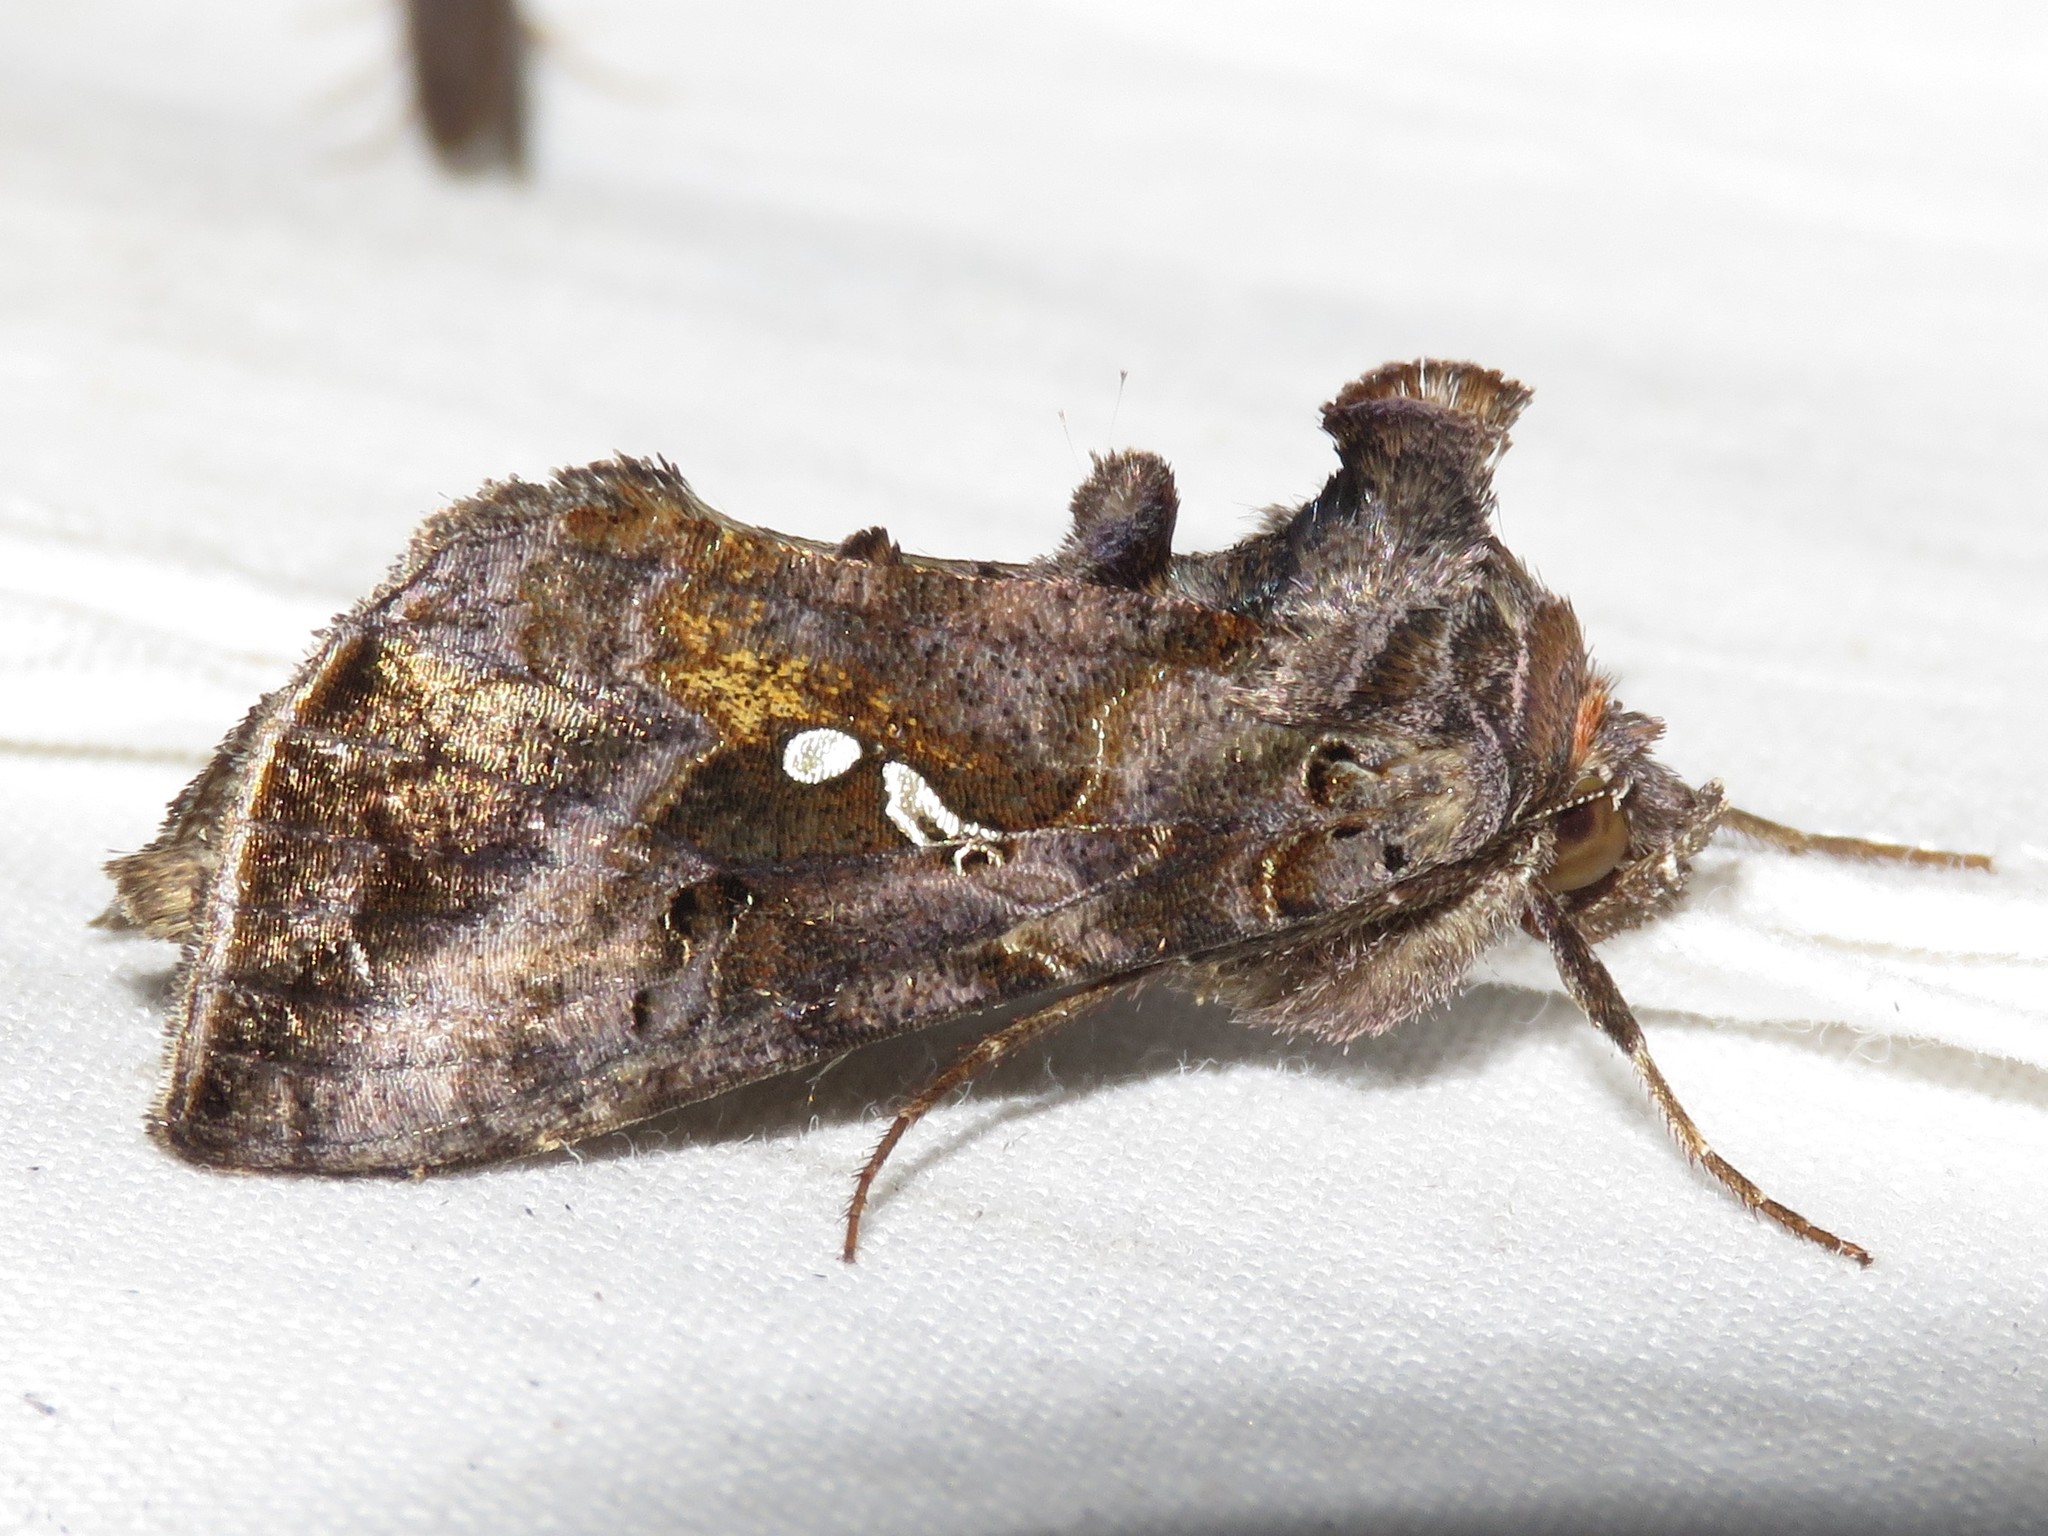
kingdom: Animalia
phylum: Arthropoda
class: Insecta
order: Lepidoptera
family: Noctuidae
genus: Autographa
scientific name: Autographa precationis
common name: Common looper moth
